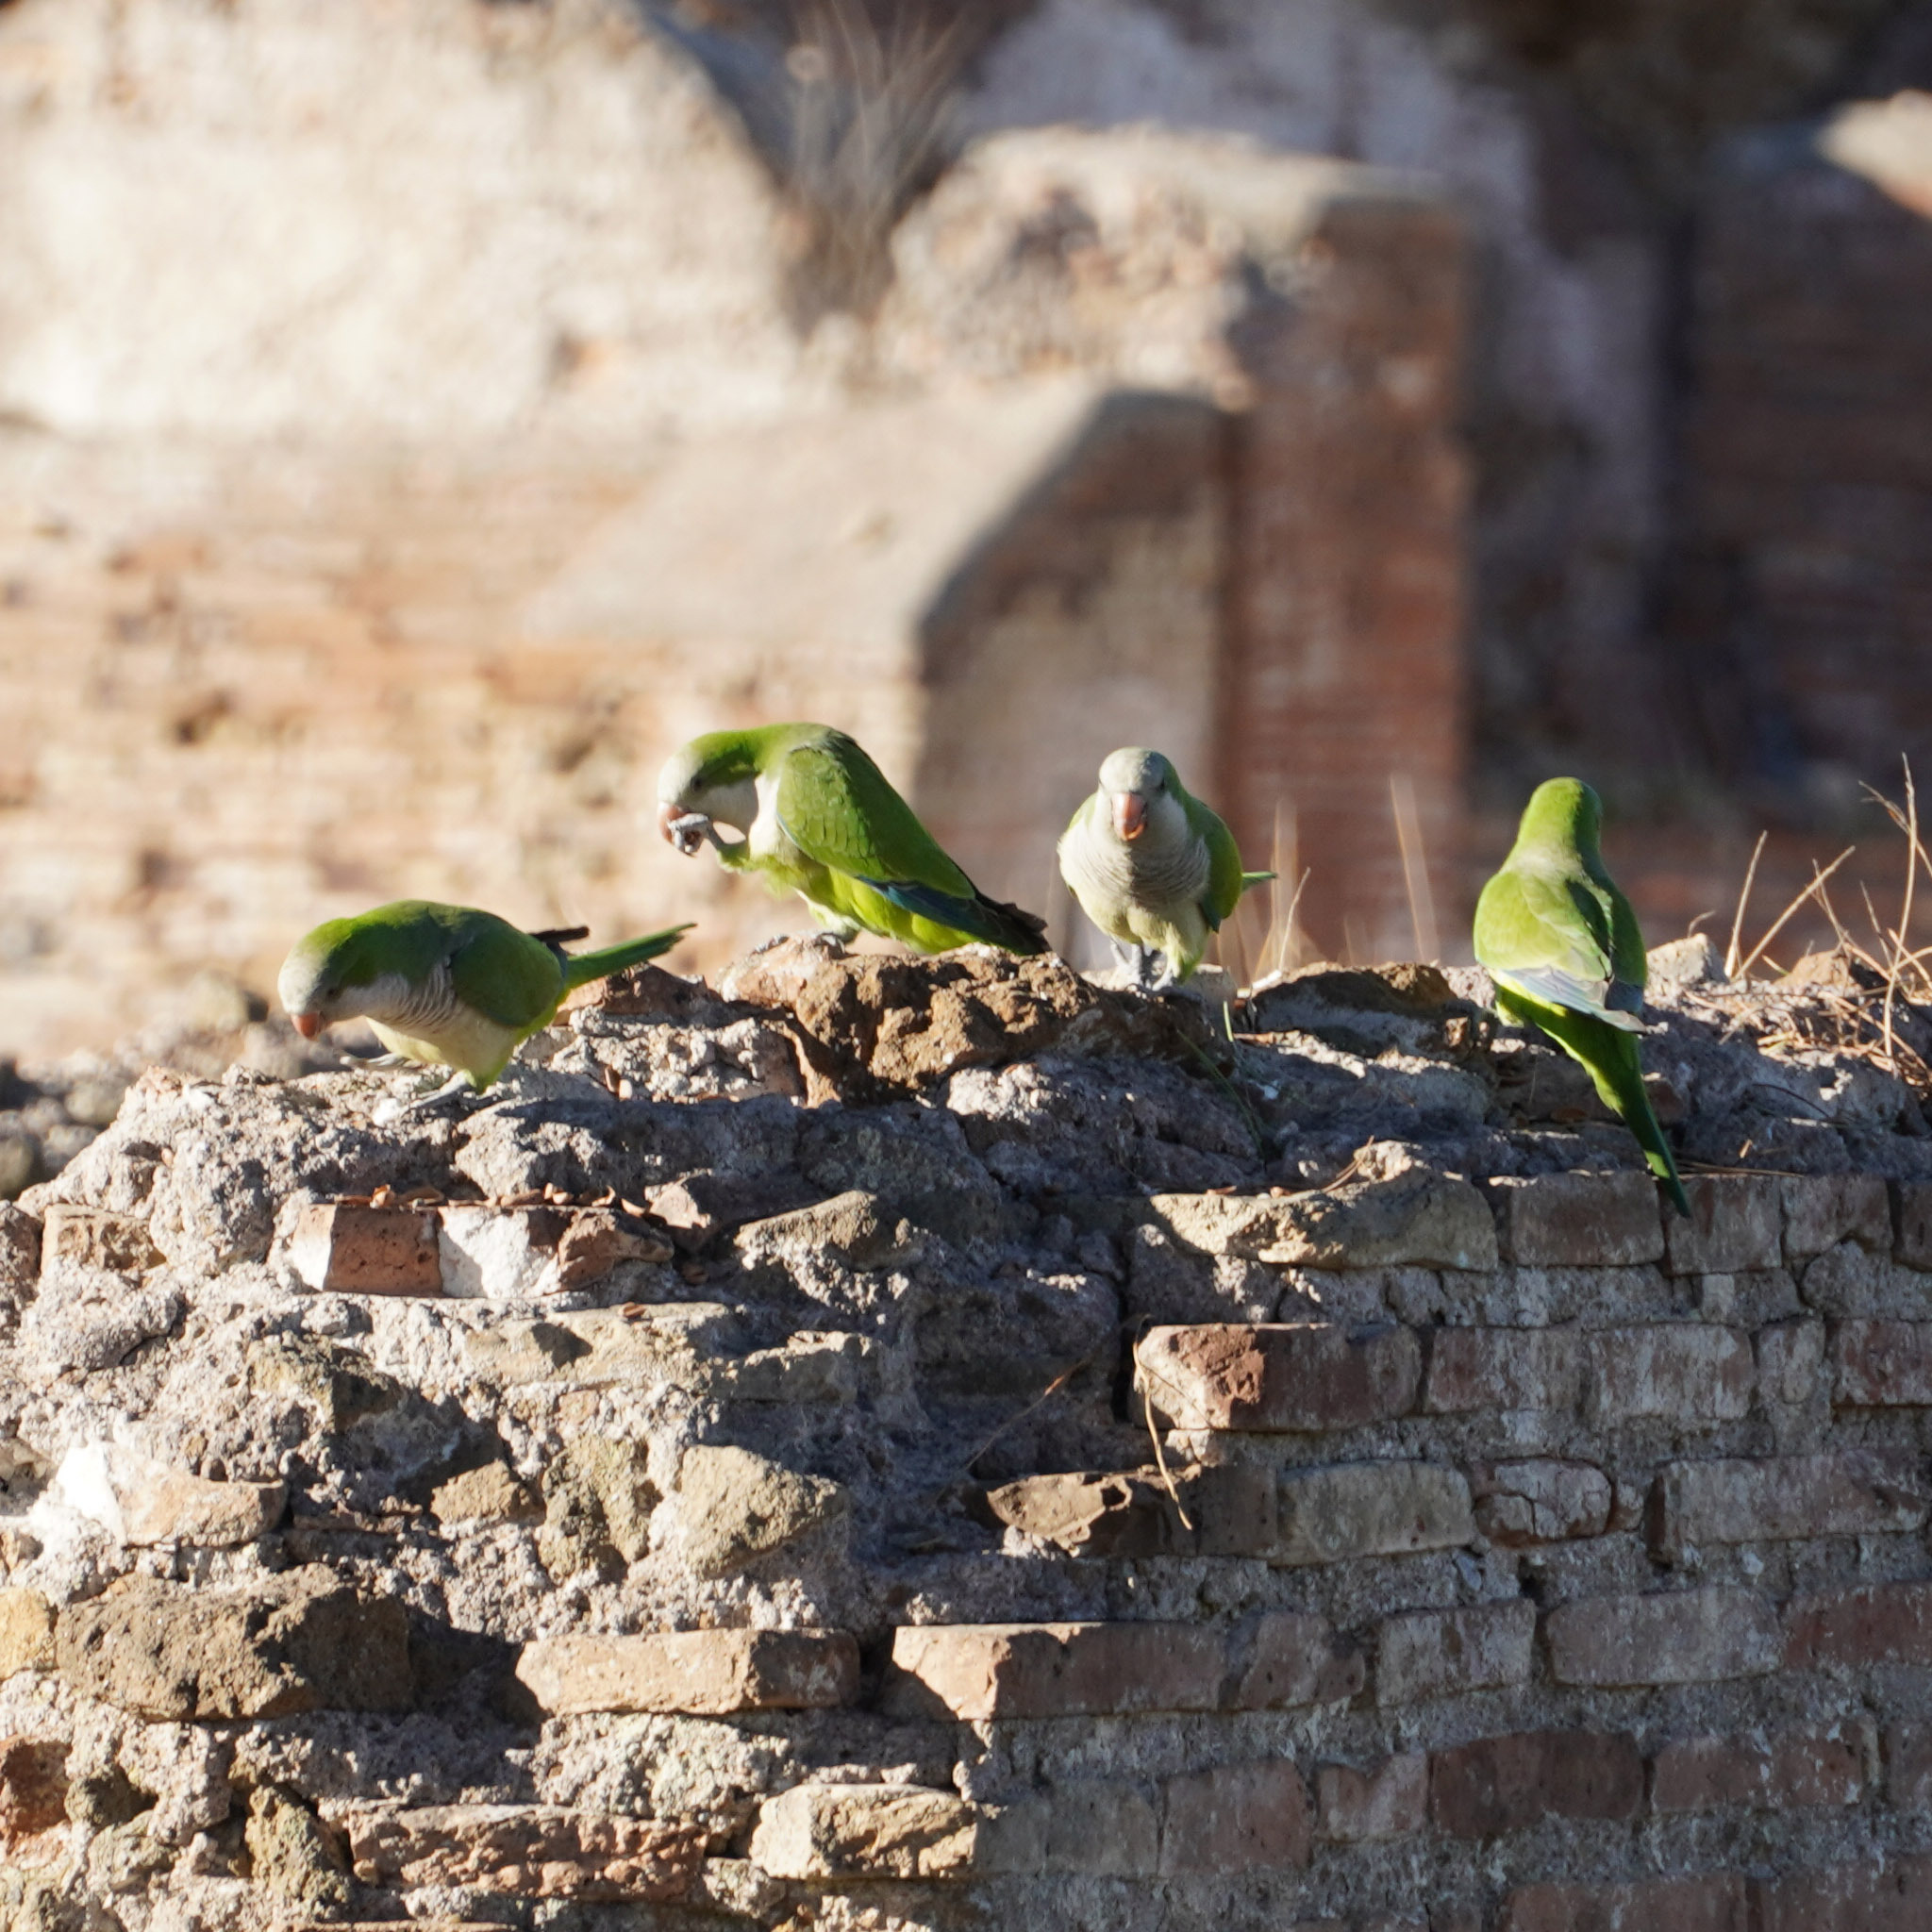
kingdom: Animalia
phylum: Chordata
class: Aves
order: Psittaciformes
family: Psittacidae
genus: Myiopsitta
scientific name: Myiopsitta monachus
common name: Monk parakeet
